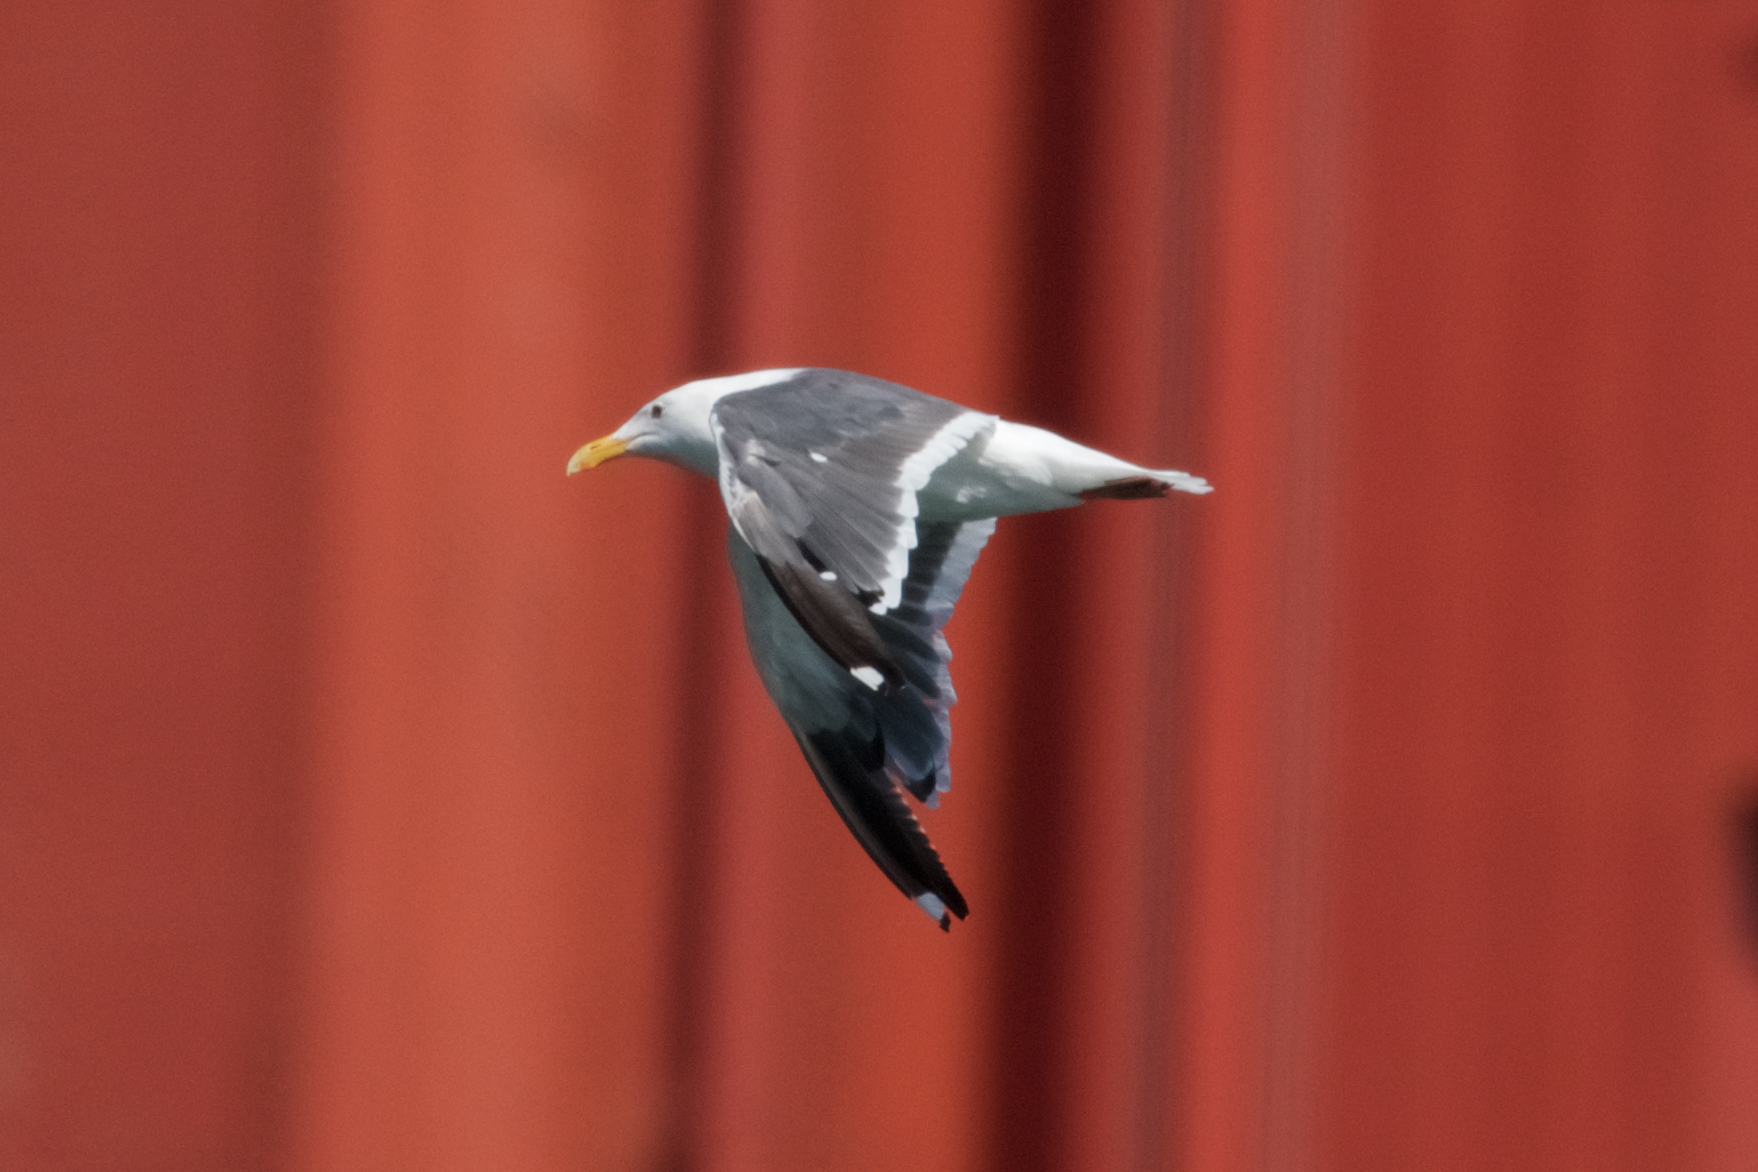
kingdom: Animalia
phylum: Chordata
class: Aves
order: Charadriiformes
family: Laridae
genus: Larus
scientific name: Larus occidentalis
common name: Western gull
